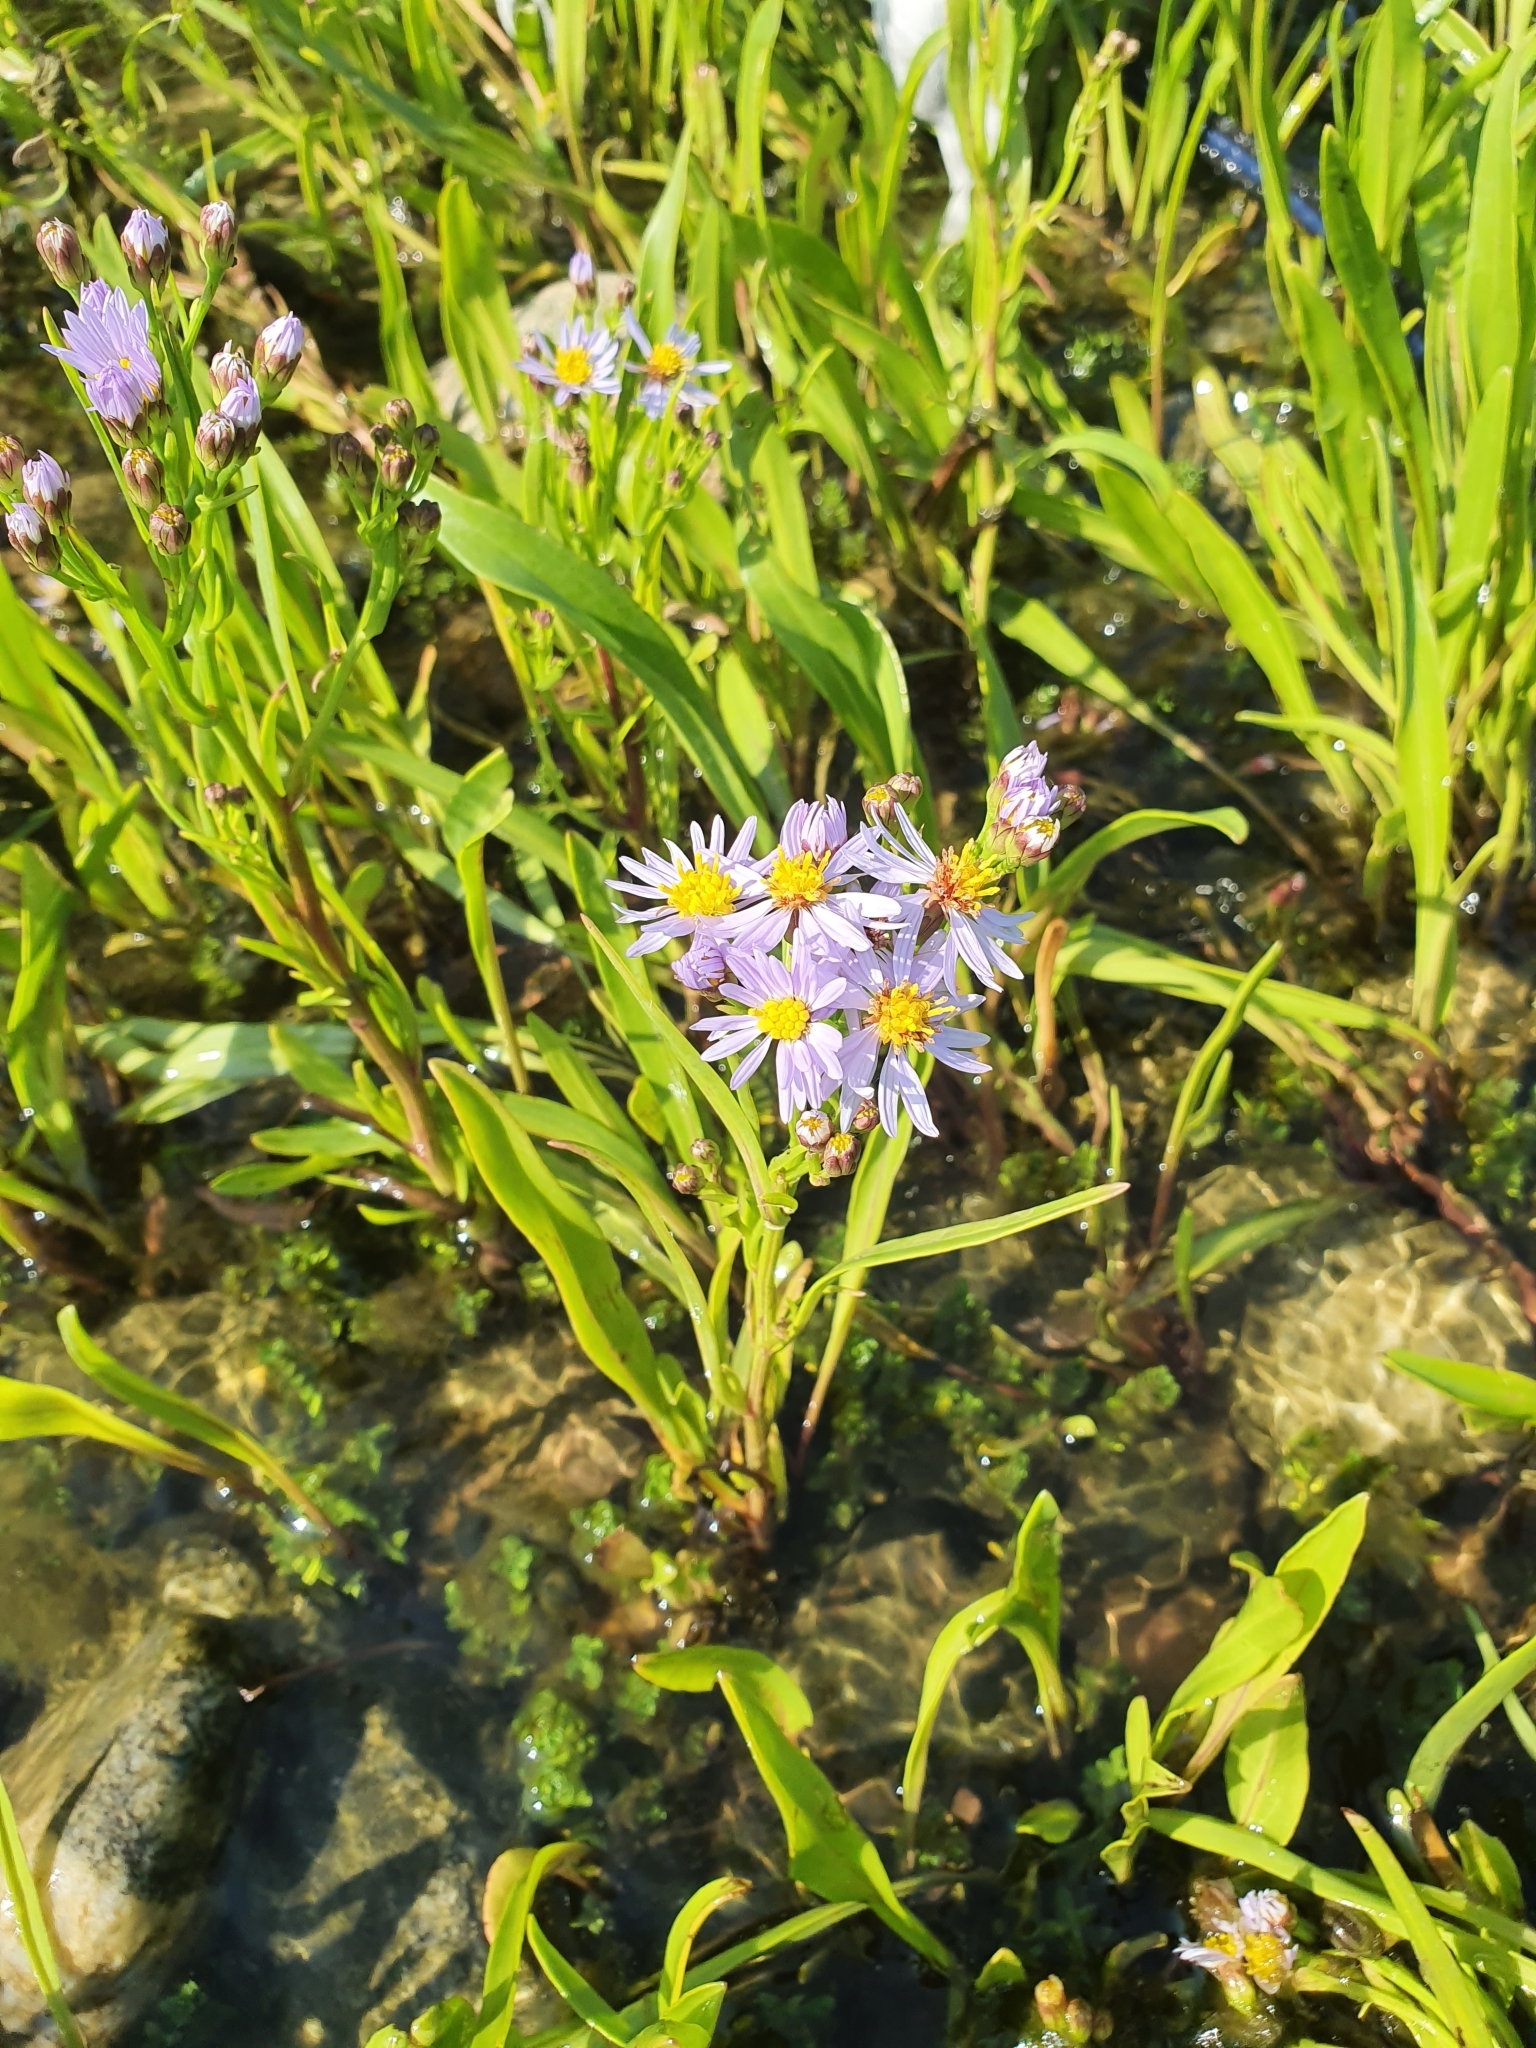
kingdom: Plantae
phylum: Tracheophyta
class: Magnoliopsida
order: Asterales
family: Asteraceae
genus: Tripolium
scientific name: Tripolium pannonicum
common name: Sea aster
